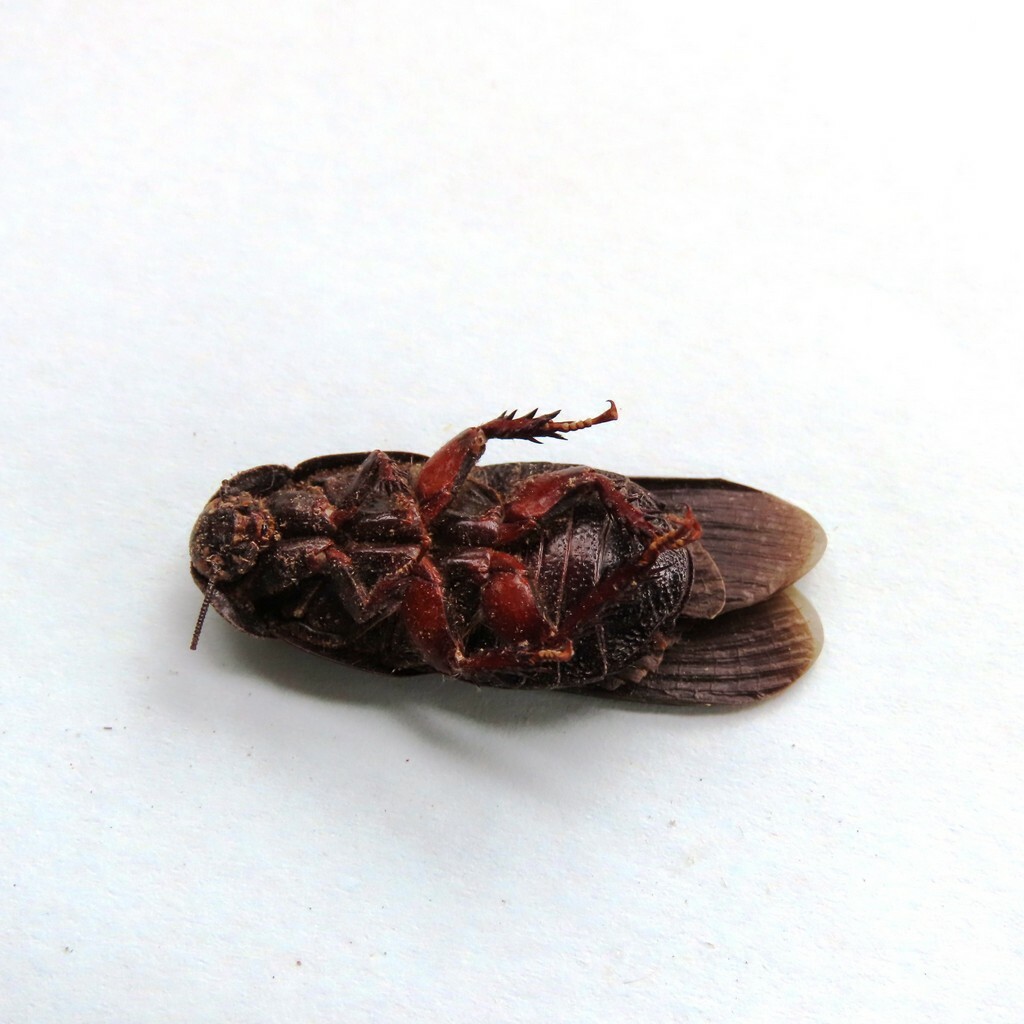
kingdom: Animalia
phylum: Arthropoda
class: Insecta
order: Blattodea
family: Blaberidae
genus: Panesthia
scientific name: Panesthia australis
